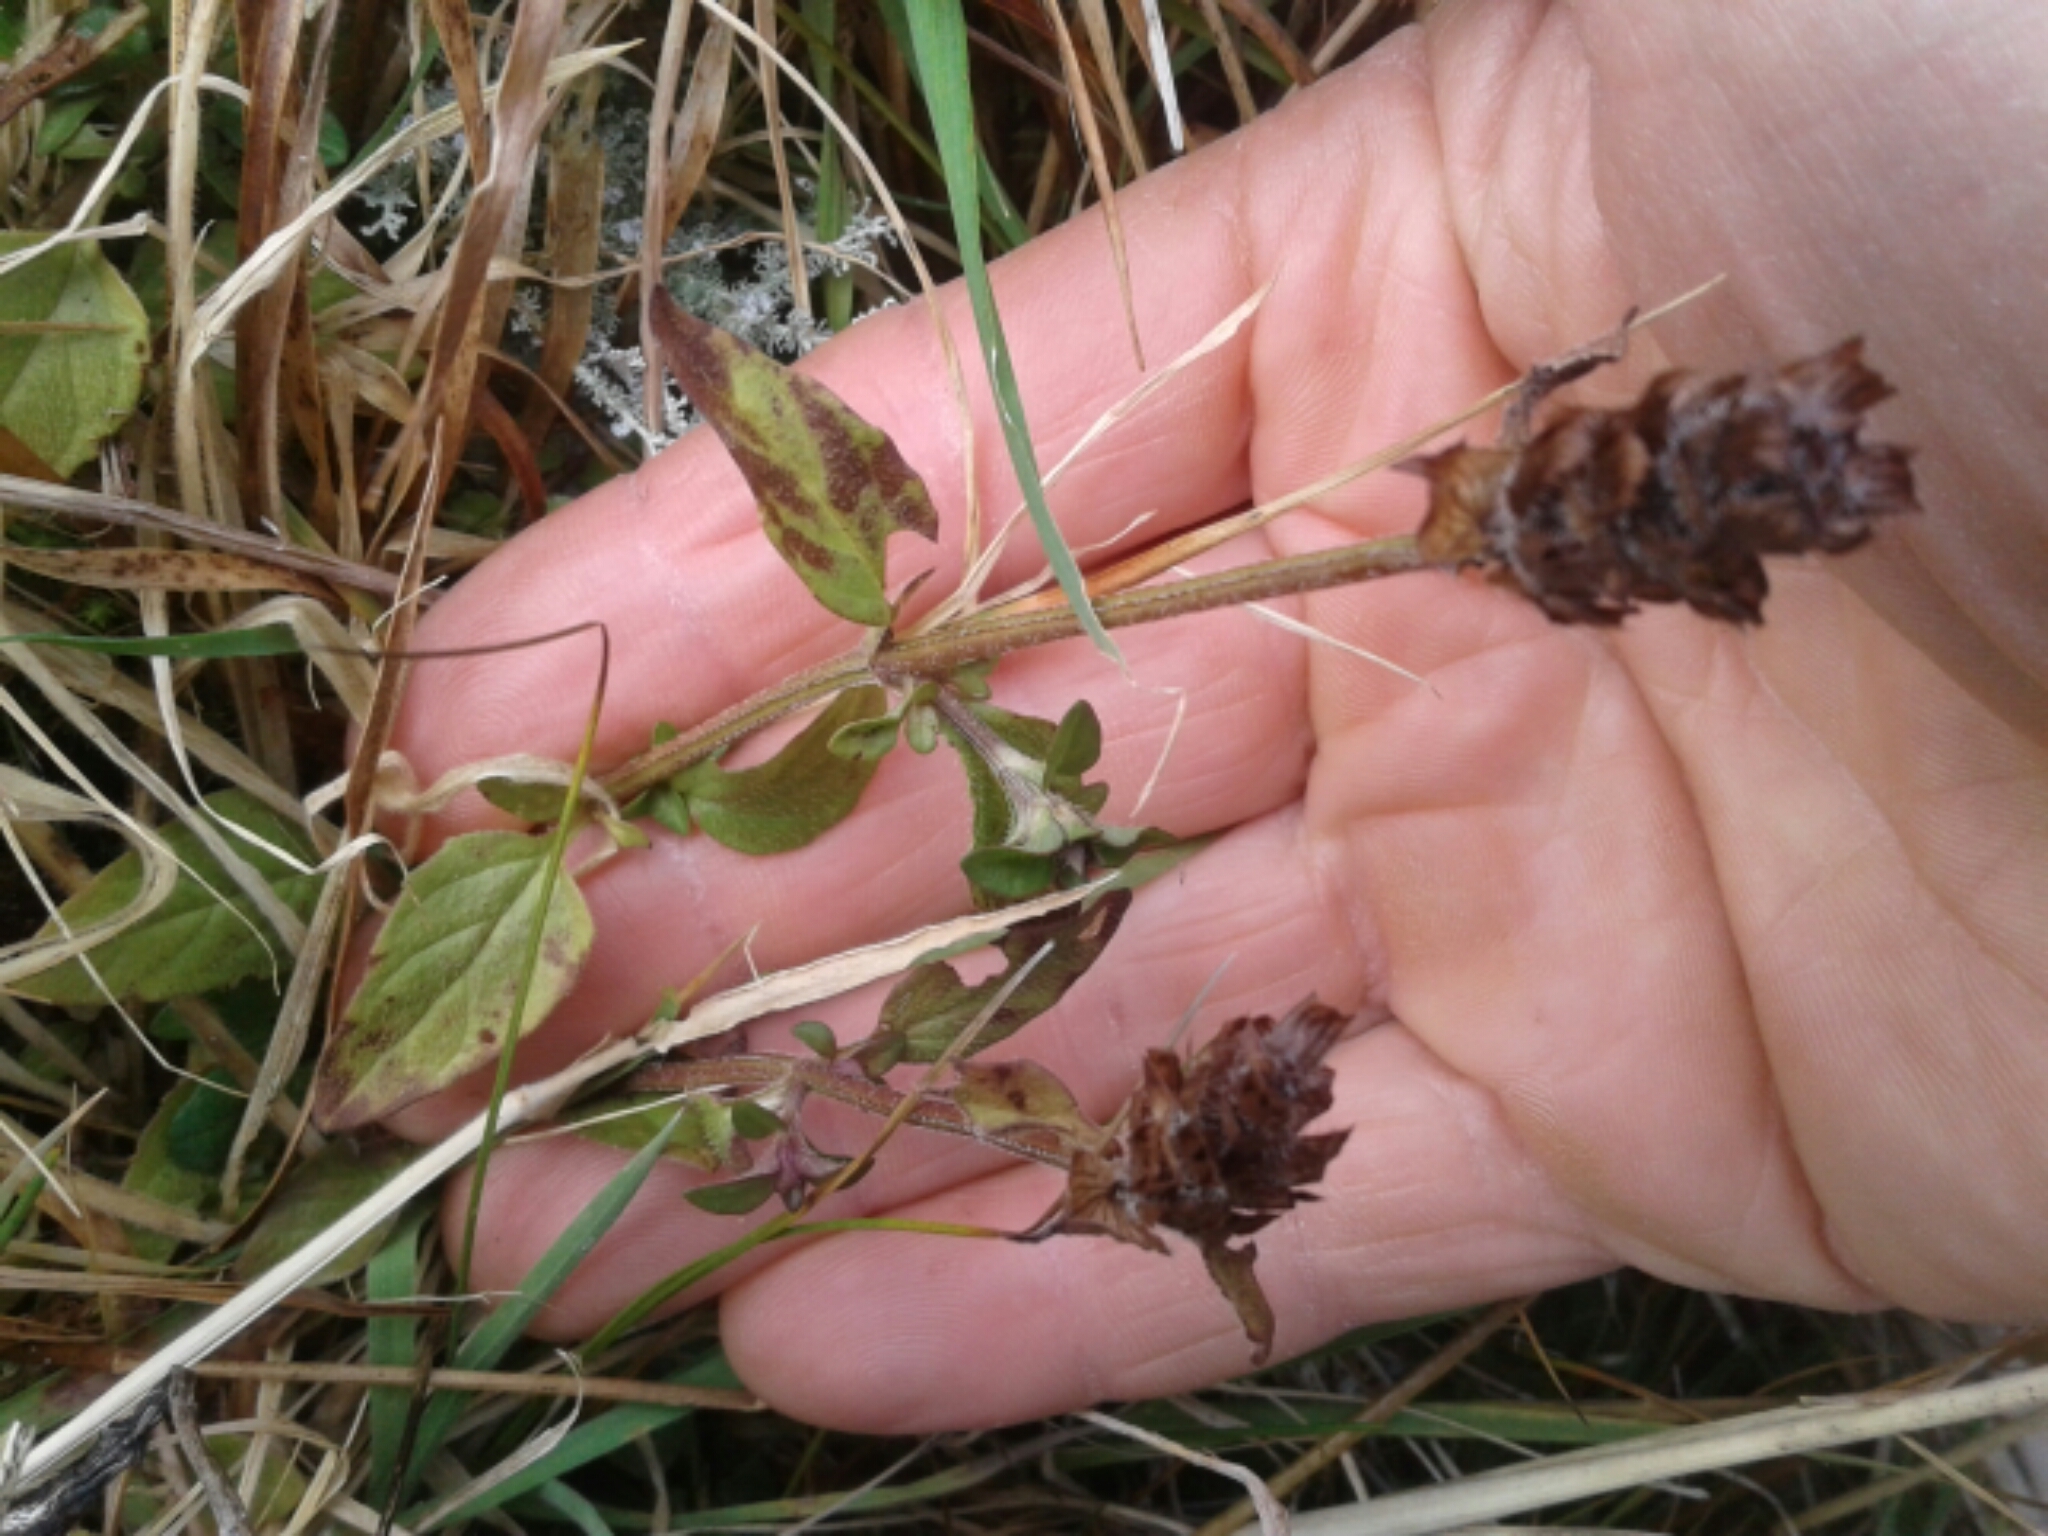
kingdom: Plantae
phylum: Tracheophyta
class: Magnoliopsida
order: Lamiales
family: Lamiaceae
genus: Prunella
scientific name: Prunella vulgaris
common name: Heal-all
